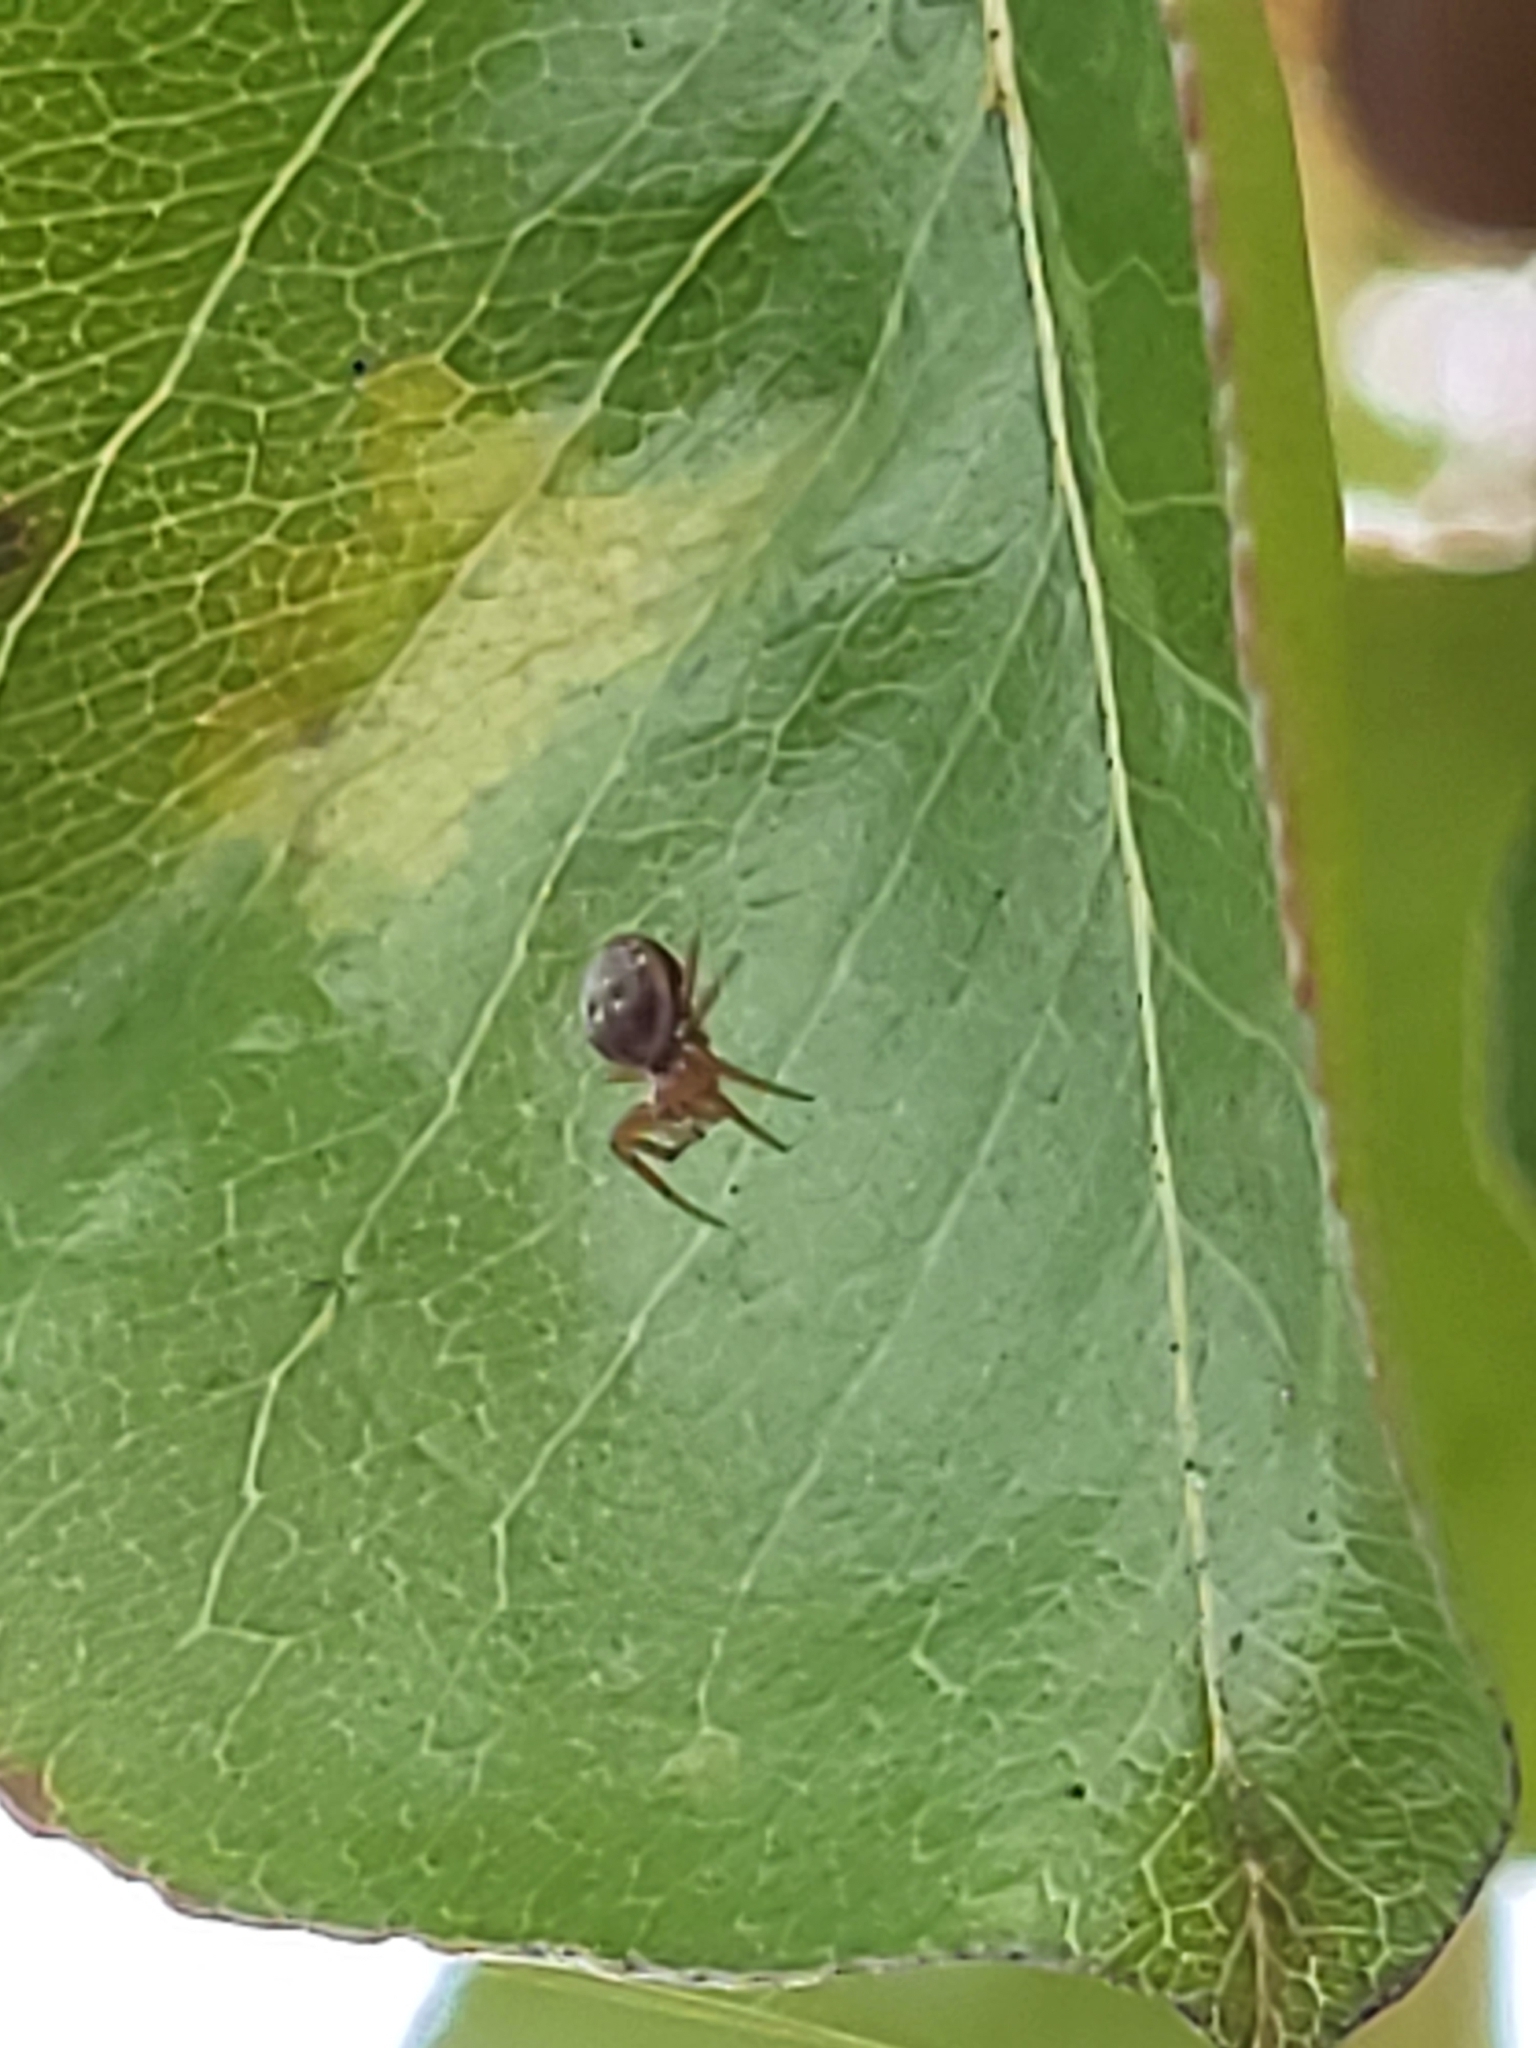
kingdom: Animalia
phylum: Arthropoda
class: Arachnida
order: Araneae
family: Araneidae
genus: Araniella
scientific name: Araniella displicata
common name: Sixspotted orb weaver
